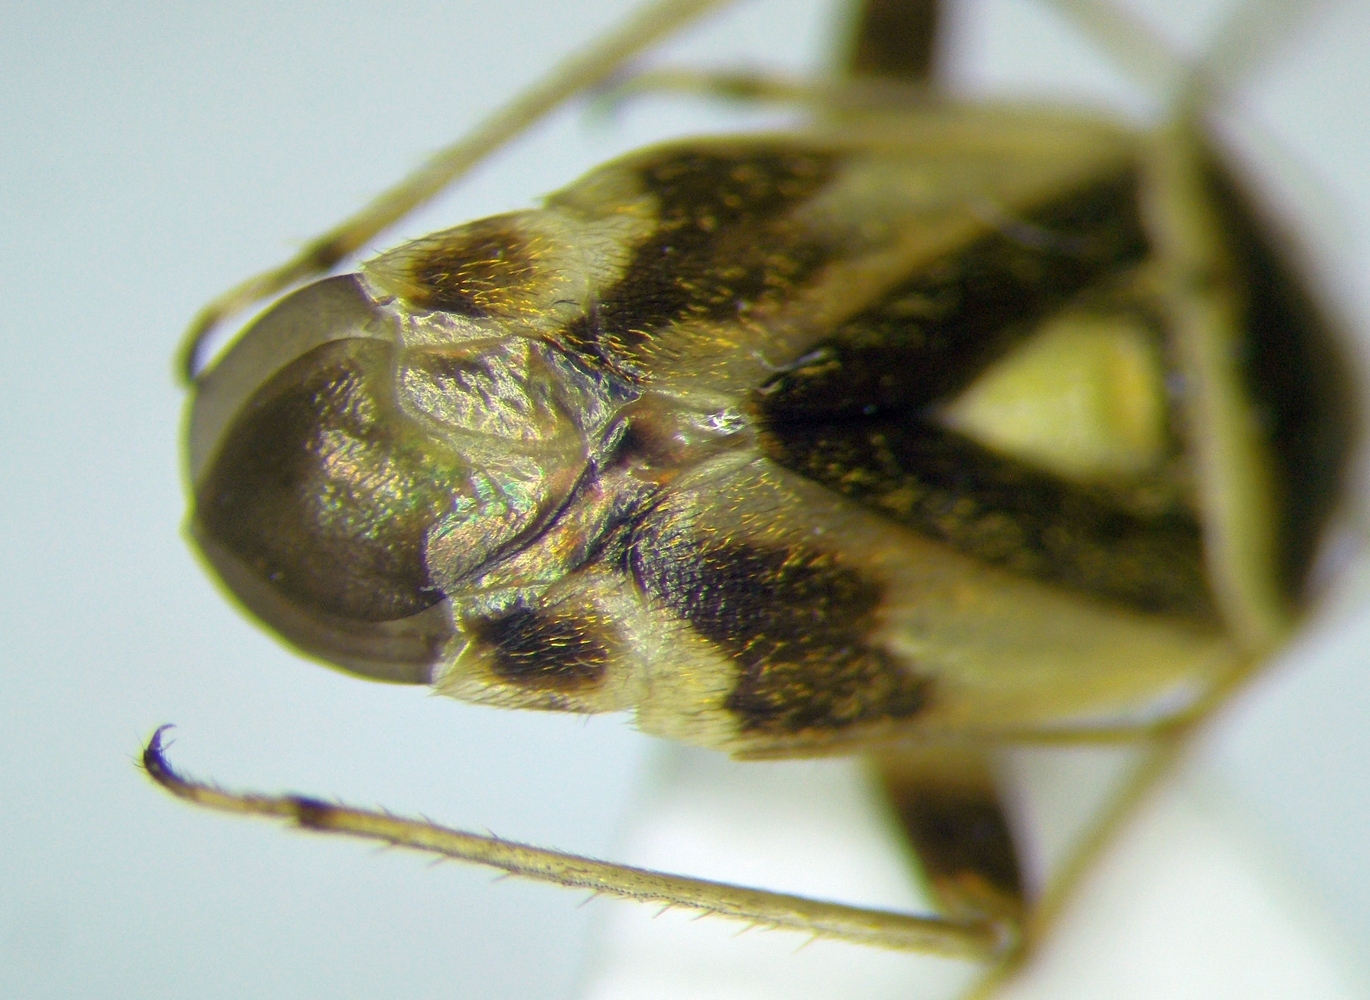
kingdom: Animalia
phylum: Arthropoda
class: Insecta
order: Hemiptera
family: Miridae
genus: Polymerus
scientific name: Polymerus brevicornis
